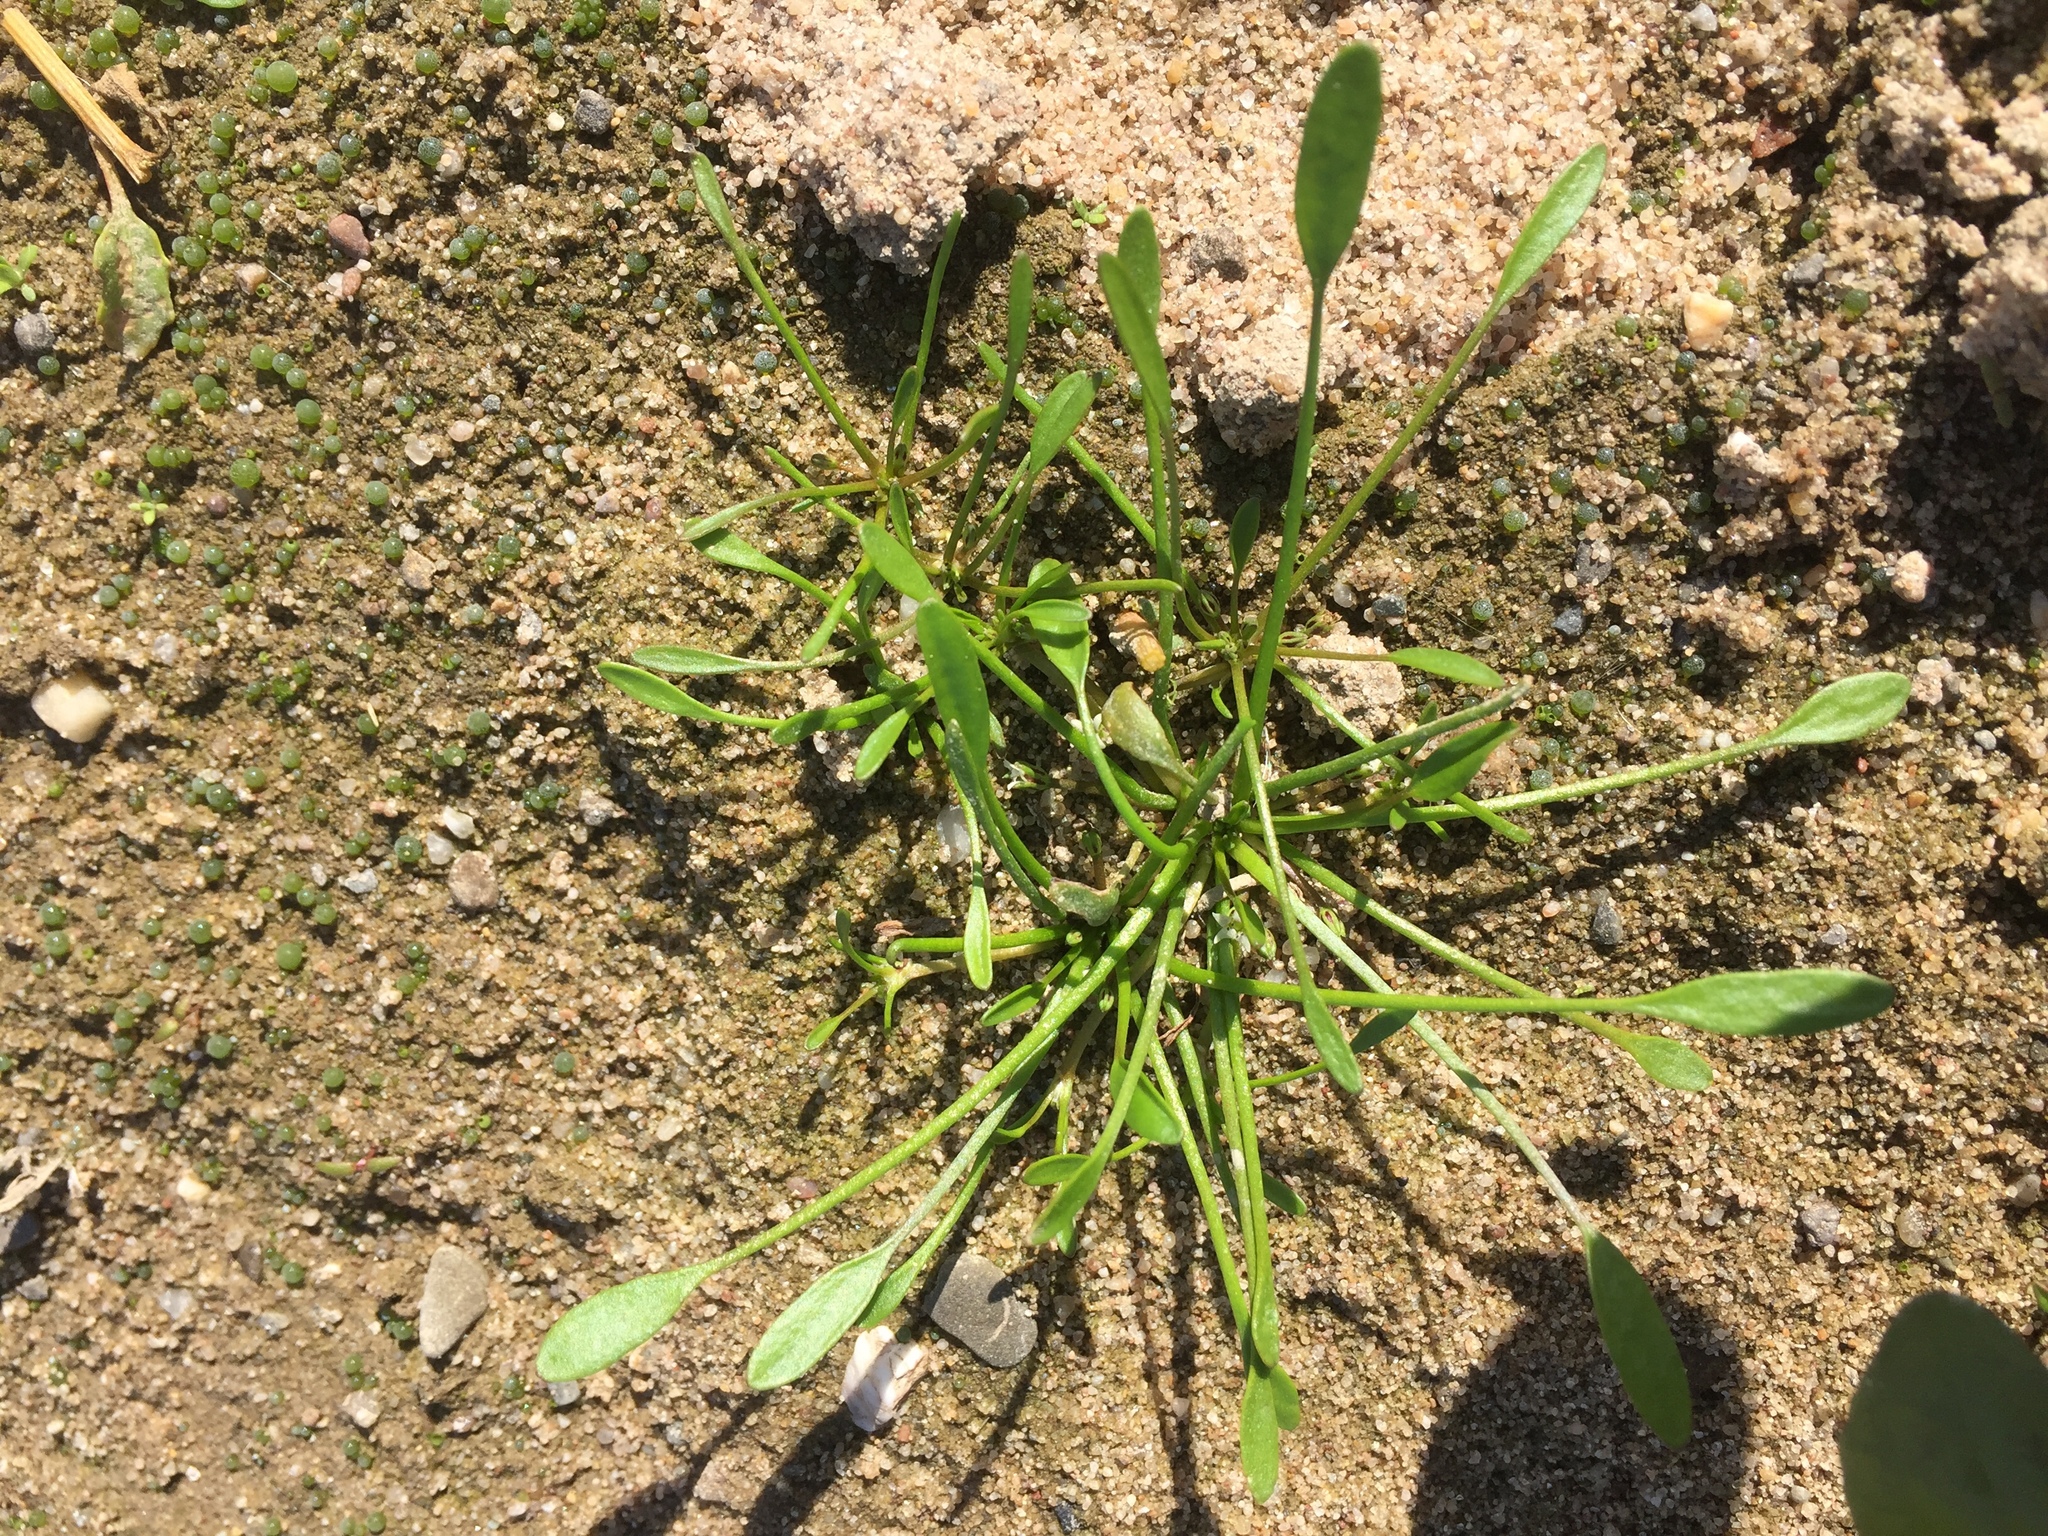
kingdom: Plantae
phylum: Tracheophyta
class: Magnoliopsida
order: Lamiales
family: Scrophulariaceae
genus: Limosella
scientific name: Limosella aquatica
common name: Mudwort
